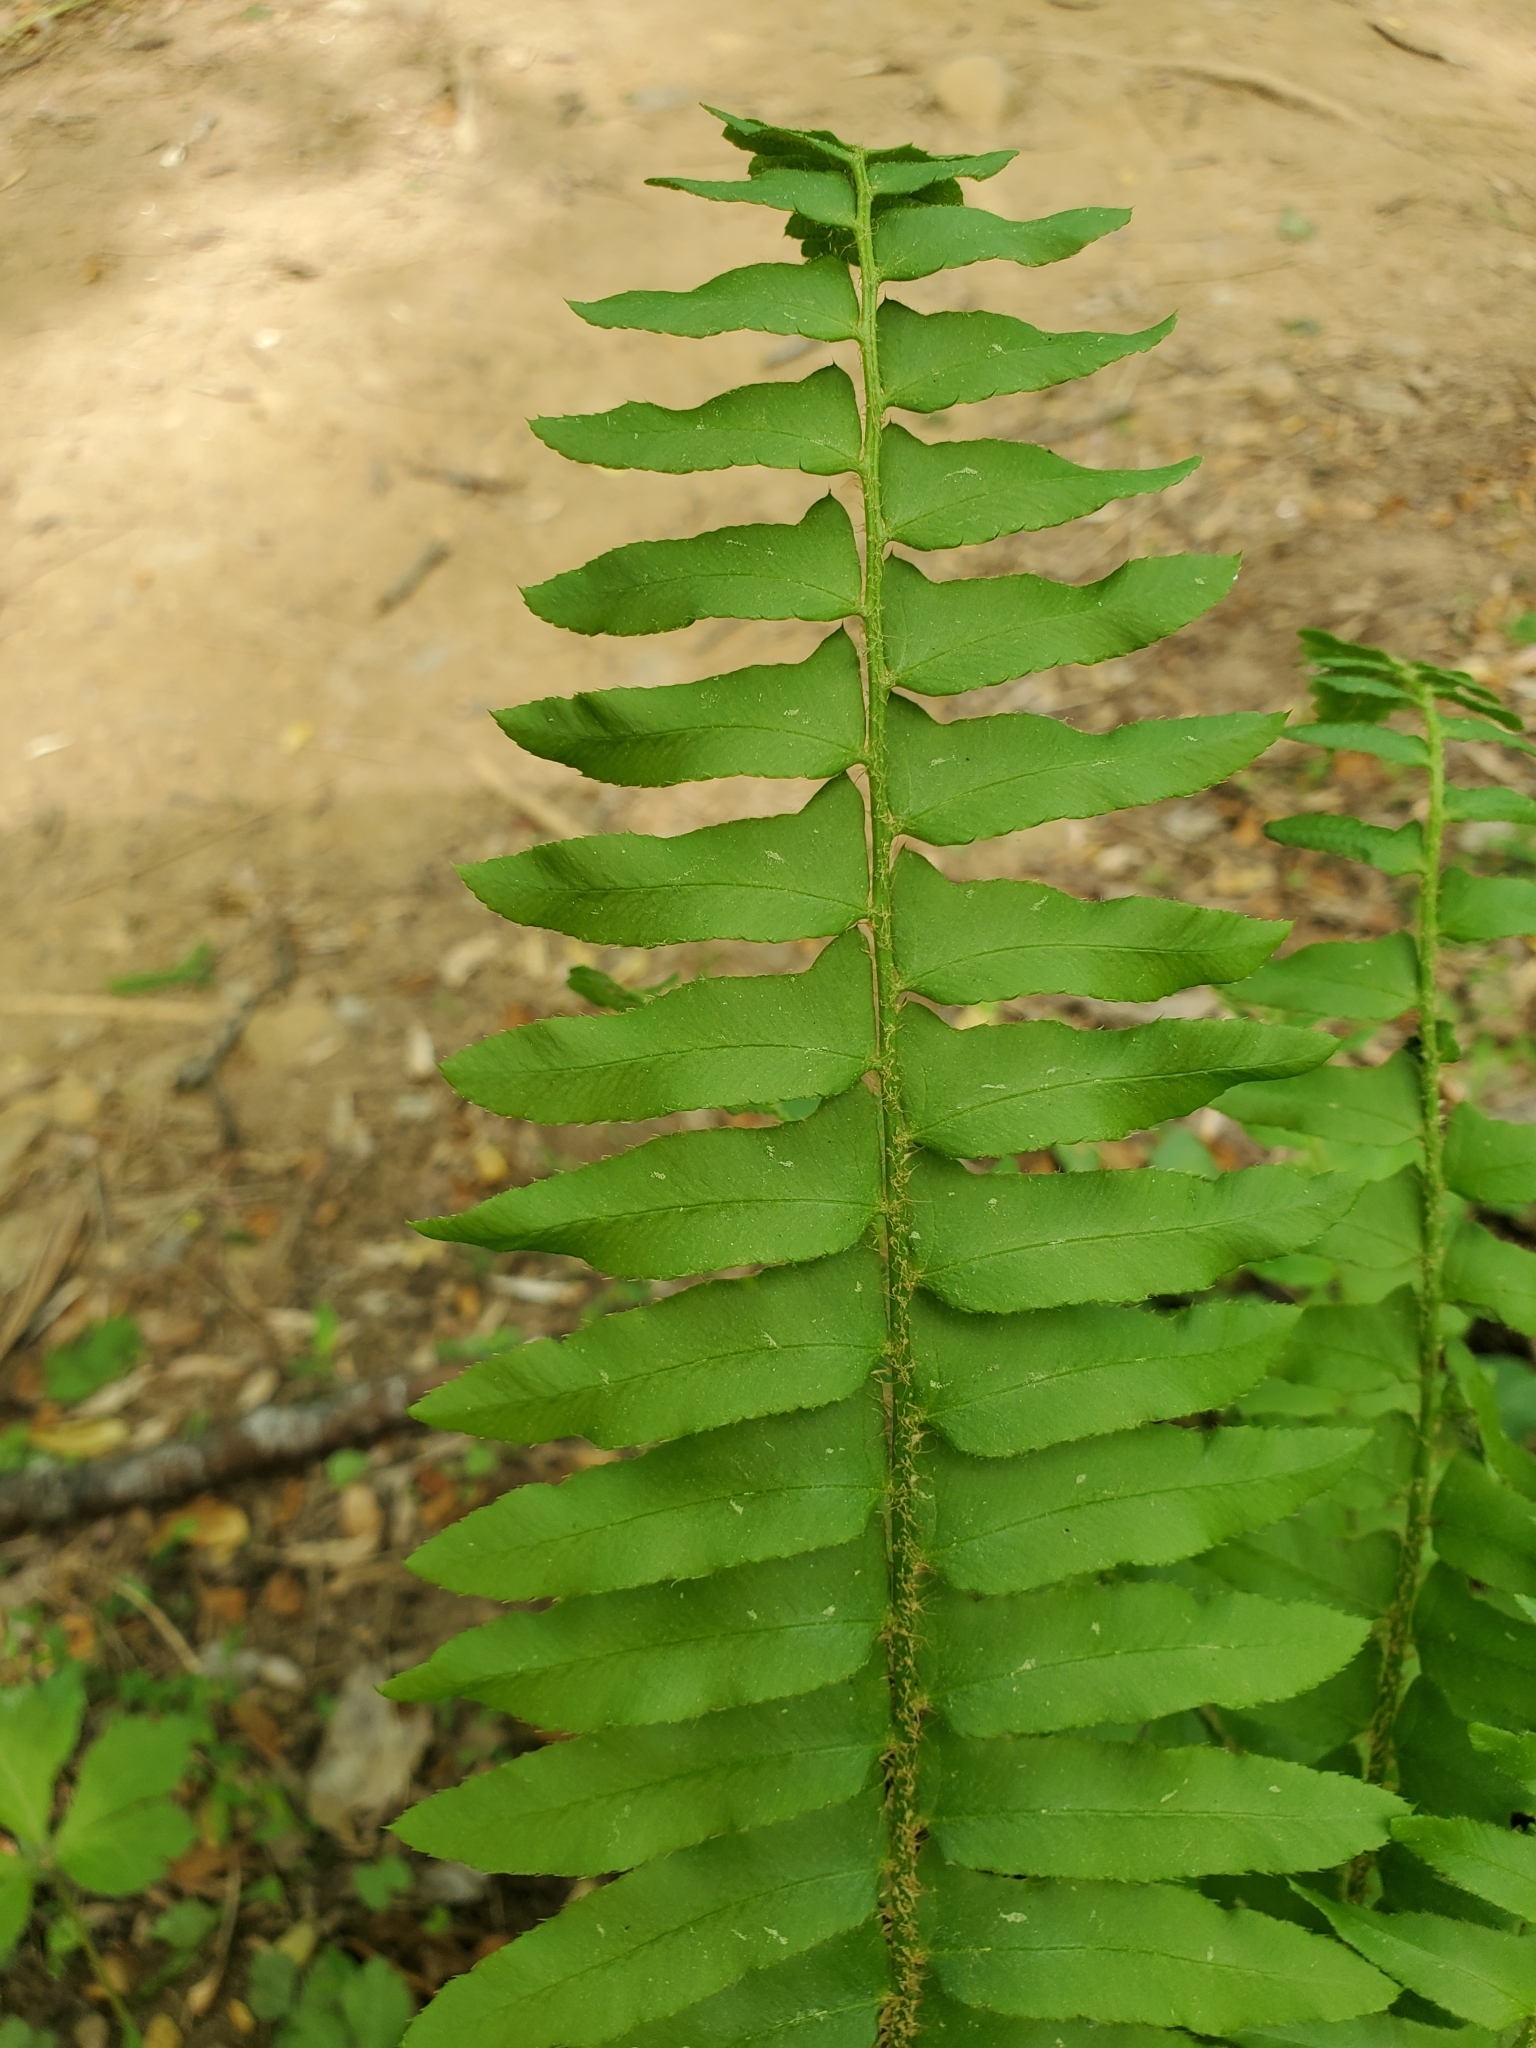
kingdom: Plantae
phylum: Tracheophyta
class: Polypodiopsida
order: Polypodiales
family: Dryopteridaceae
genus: Polystichum
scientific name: Polystichum acrostichoides
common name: Christmas fern
